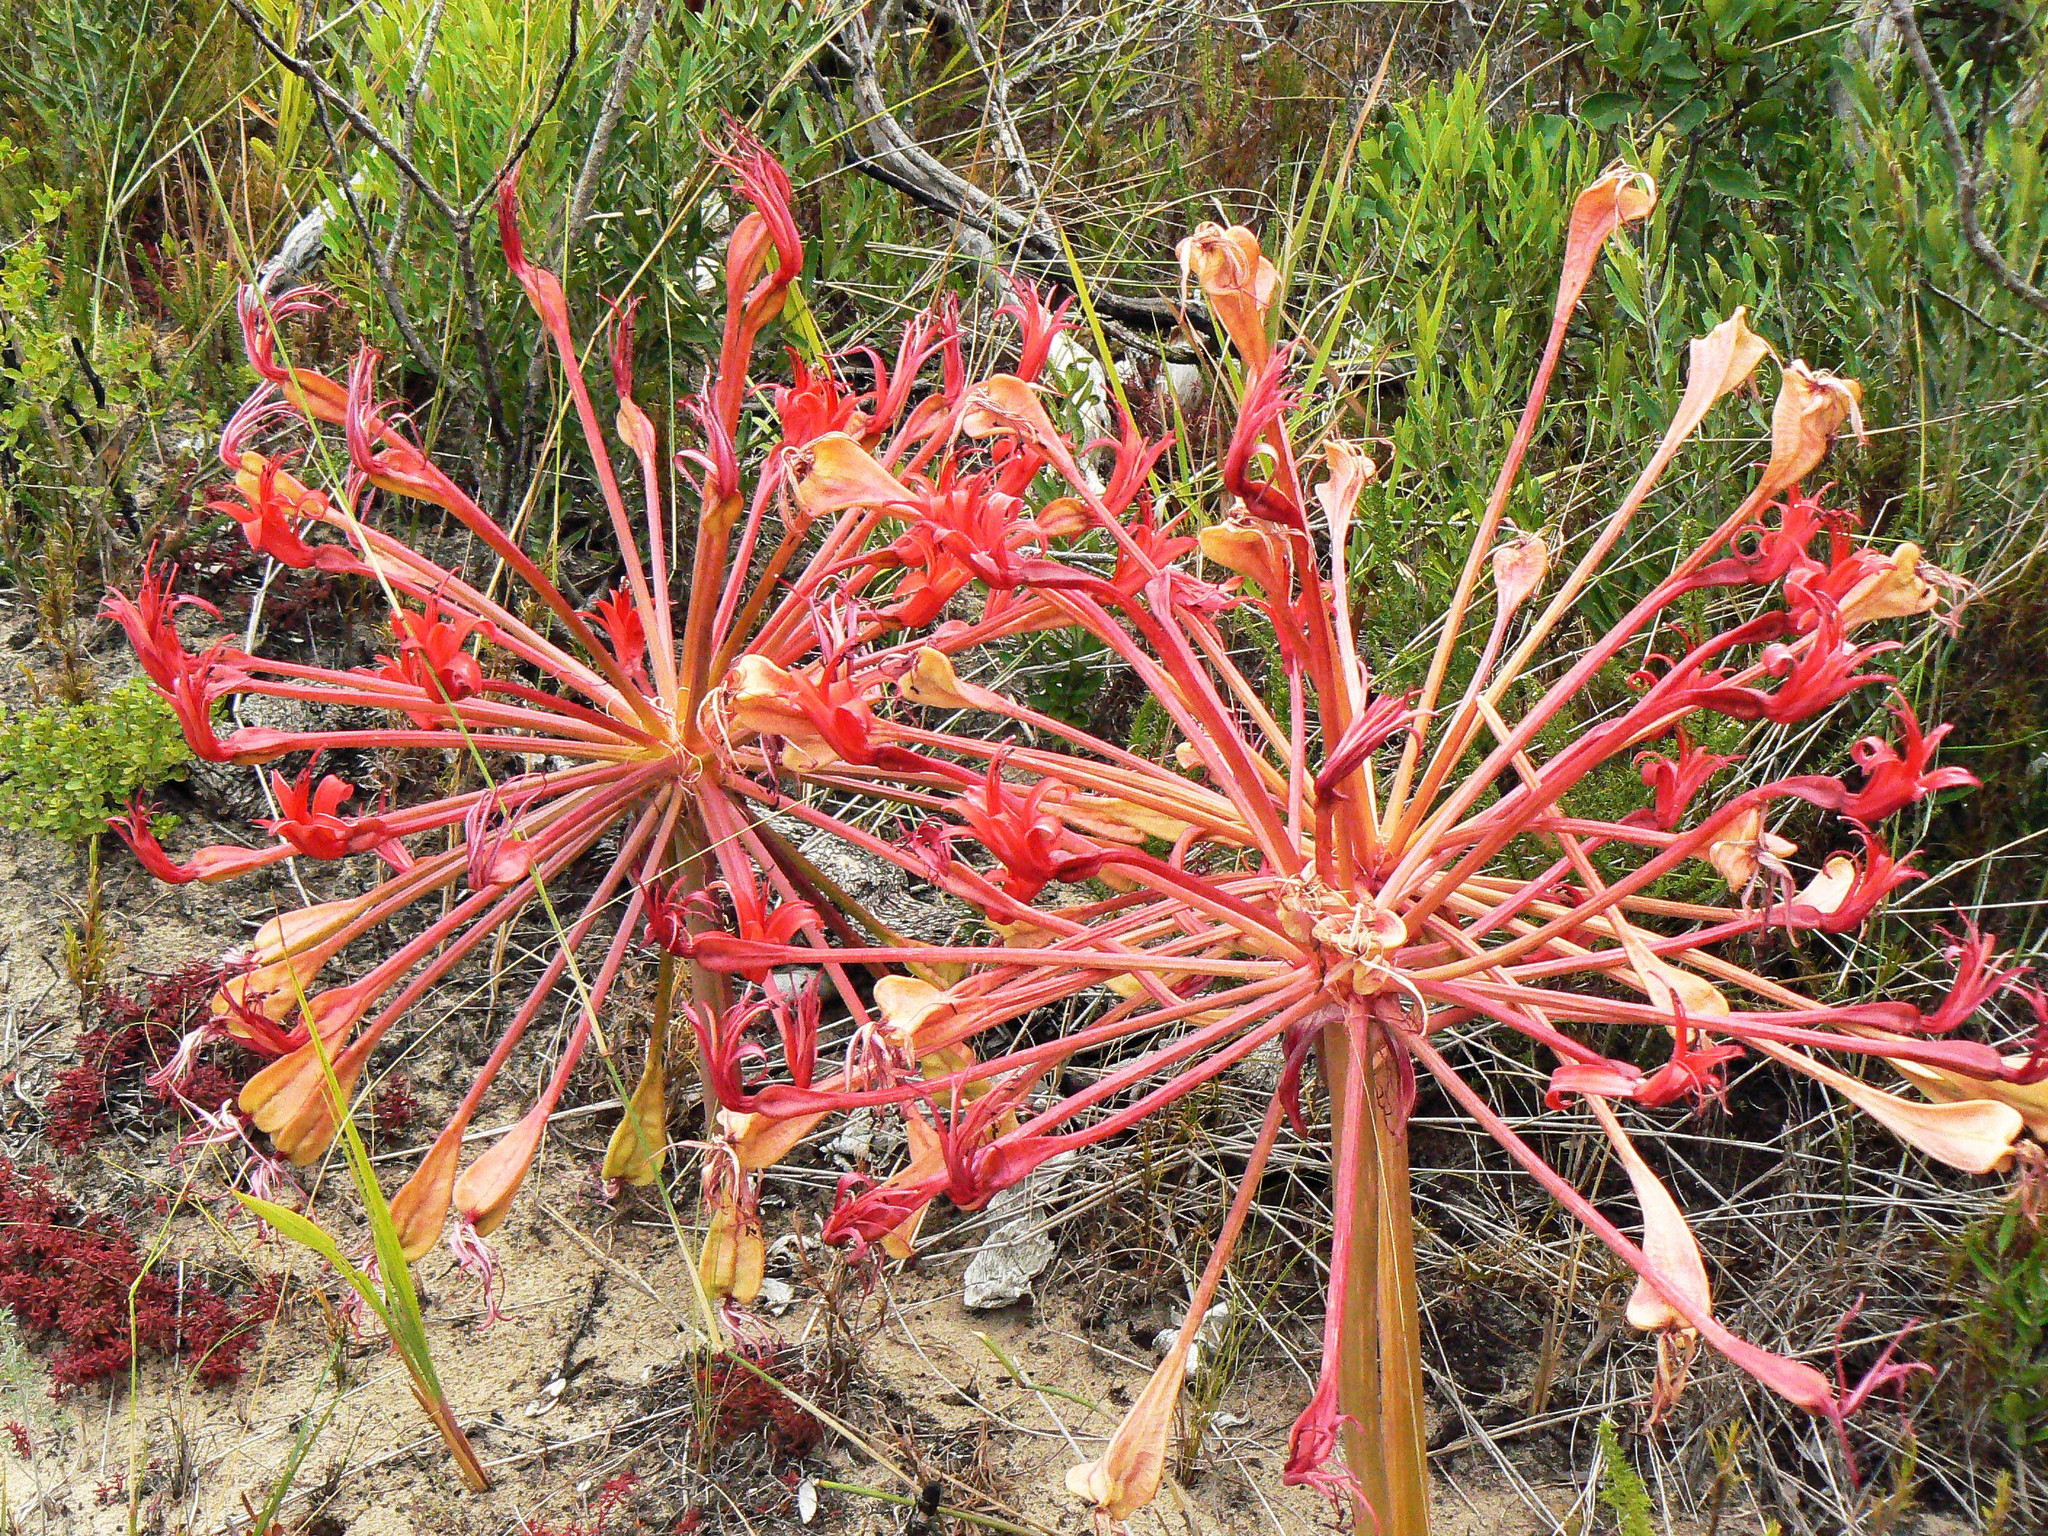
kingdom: Plantae
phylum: Tracheophyta
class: Liliopsida
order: Asparagales
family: Amaryllidaceae
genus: Brunsvigia
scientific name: Brunsvigia orientalis
